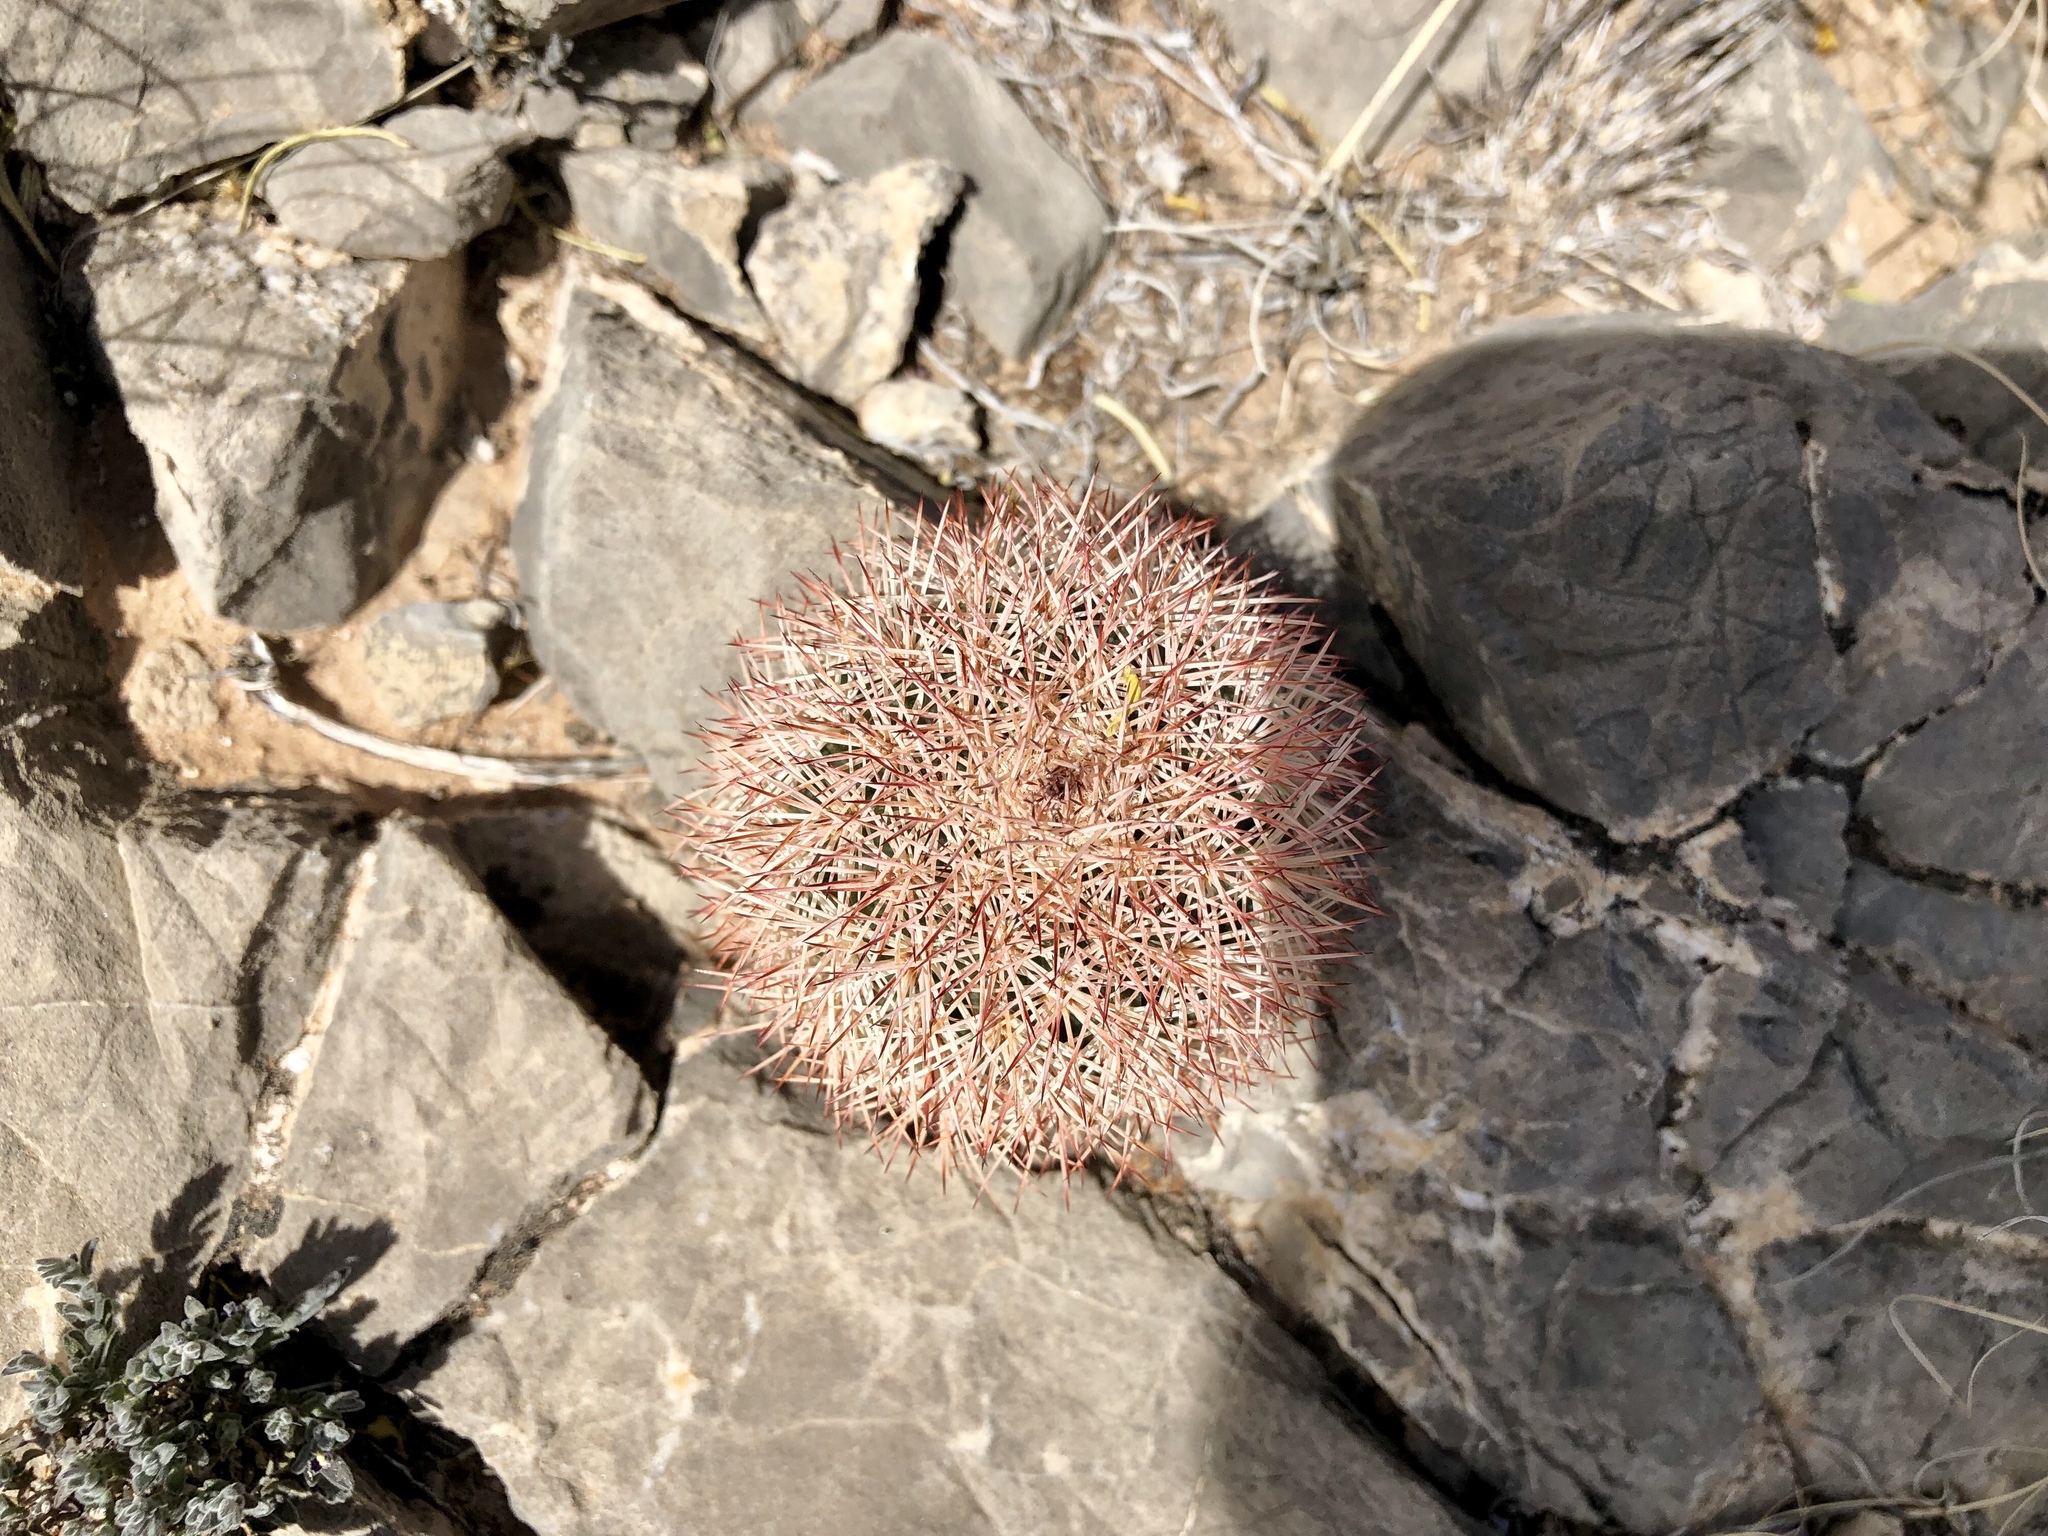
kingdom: Plantae
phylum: Tracheophyta
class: Magnoliopsida
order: Caryophyllales
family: Cactaceae
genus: Echinocereus
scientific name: Echinocereus dasyacanthus
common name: Spiny hedgehog cactus
